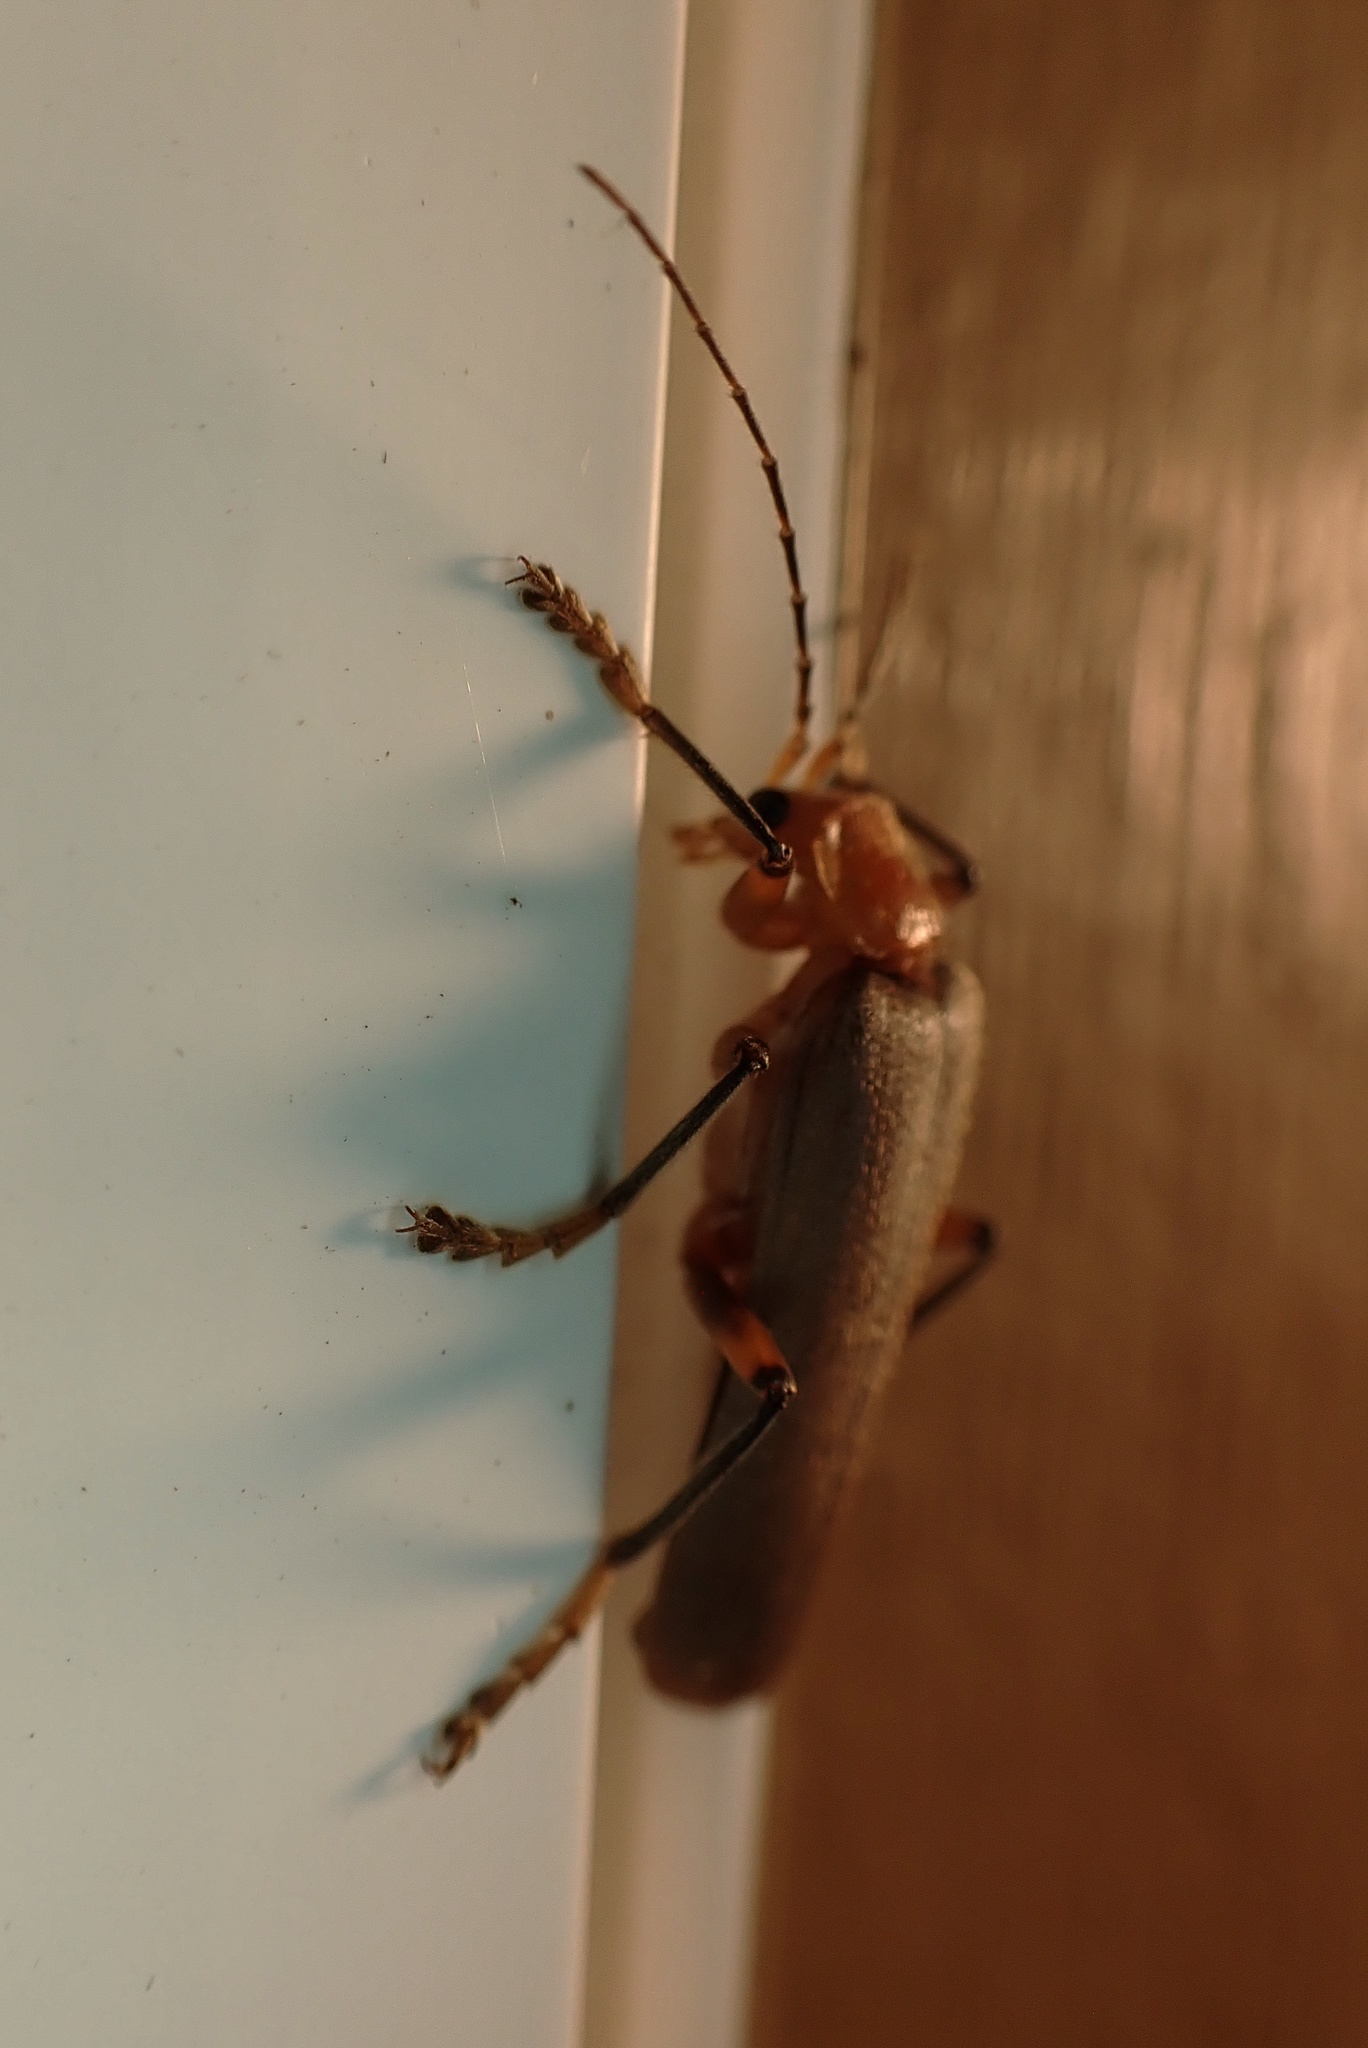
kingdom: Animalia
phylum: Arthropoda
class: Insecta
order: Coleoptera
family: Cantharidae
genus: Pacificanthia
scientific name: Pacificanthia consors
